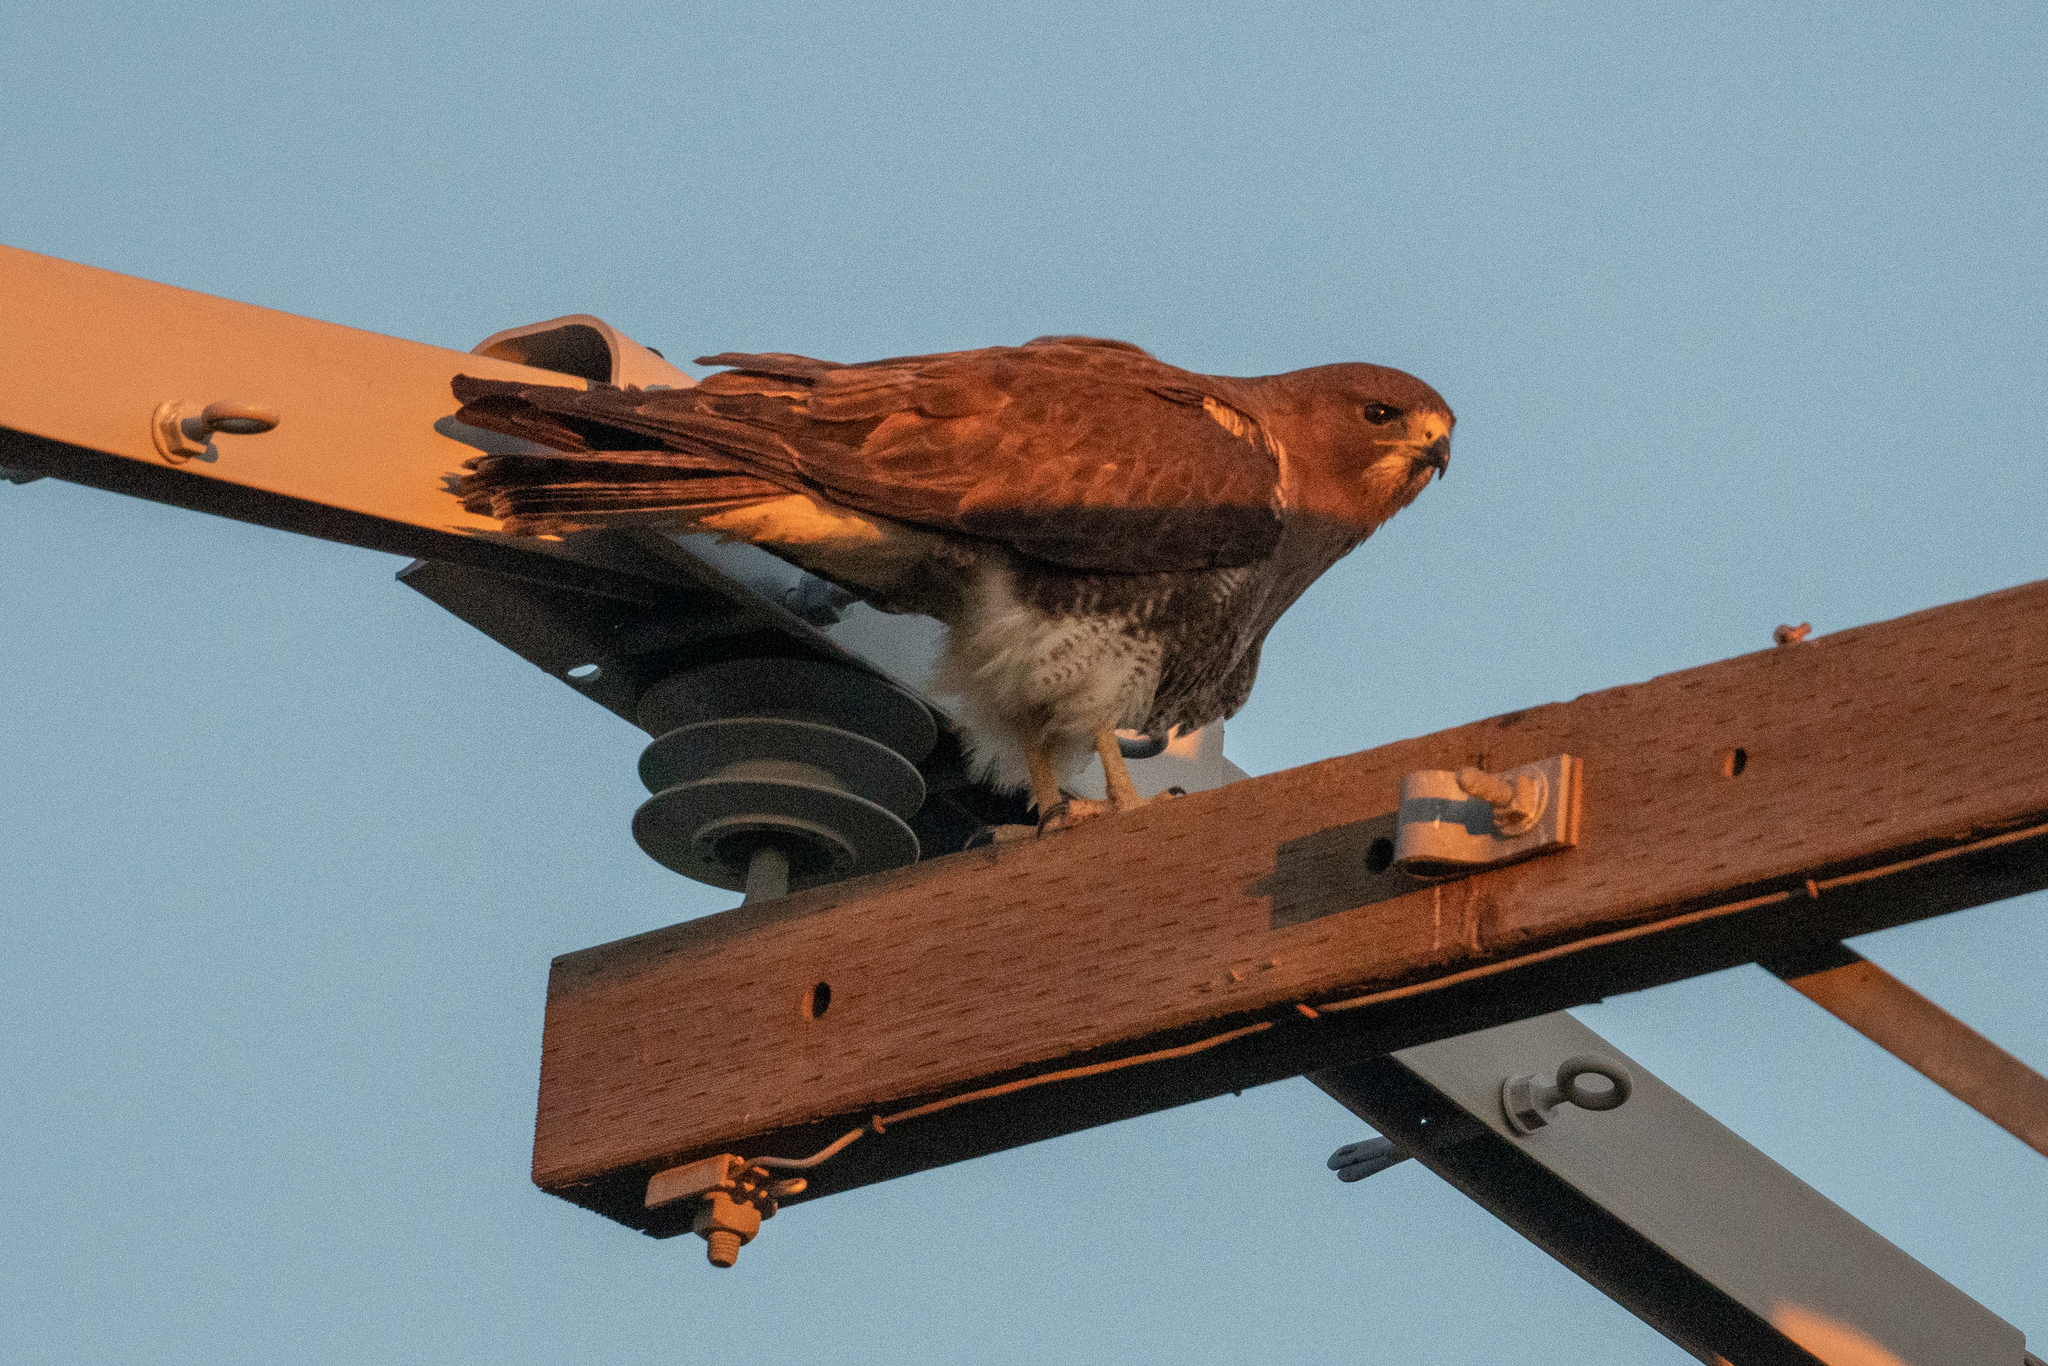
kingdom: Animalia
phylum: Chordata
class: Aves
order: Accipitriformes
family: Accipitridae
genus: Buteo
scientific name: Buteo swainsoni
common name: Swainson's hawk
